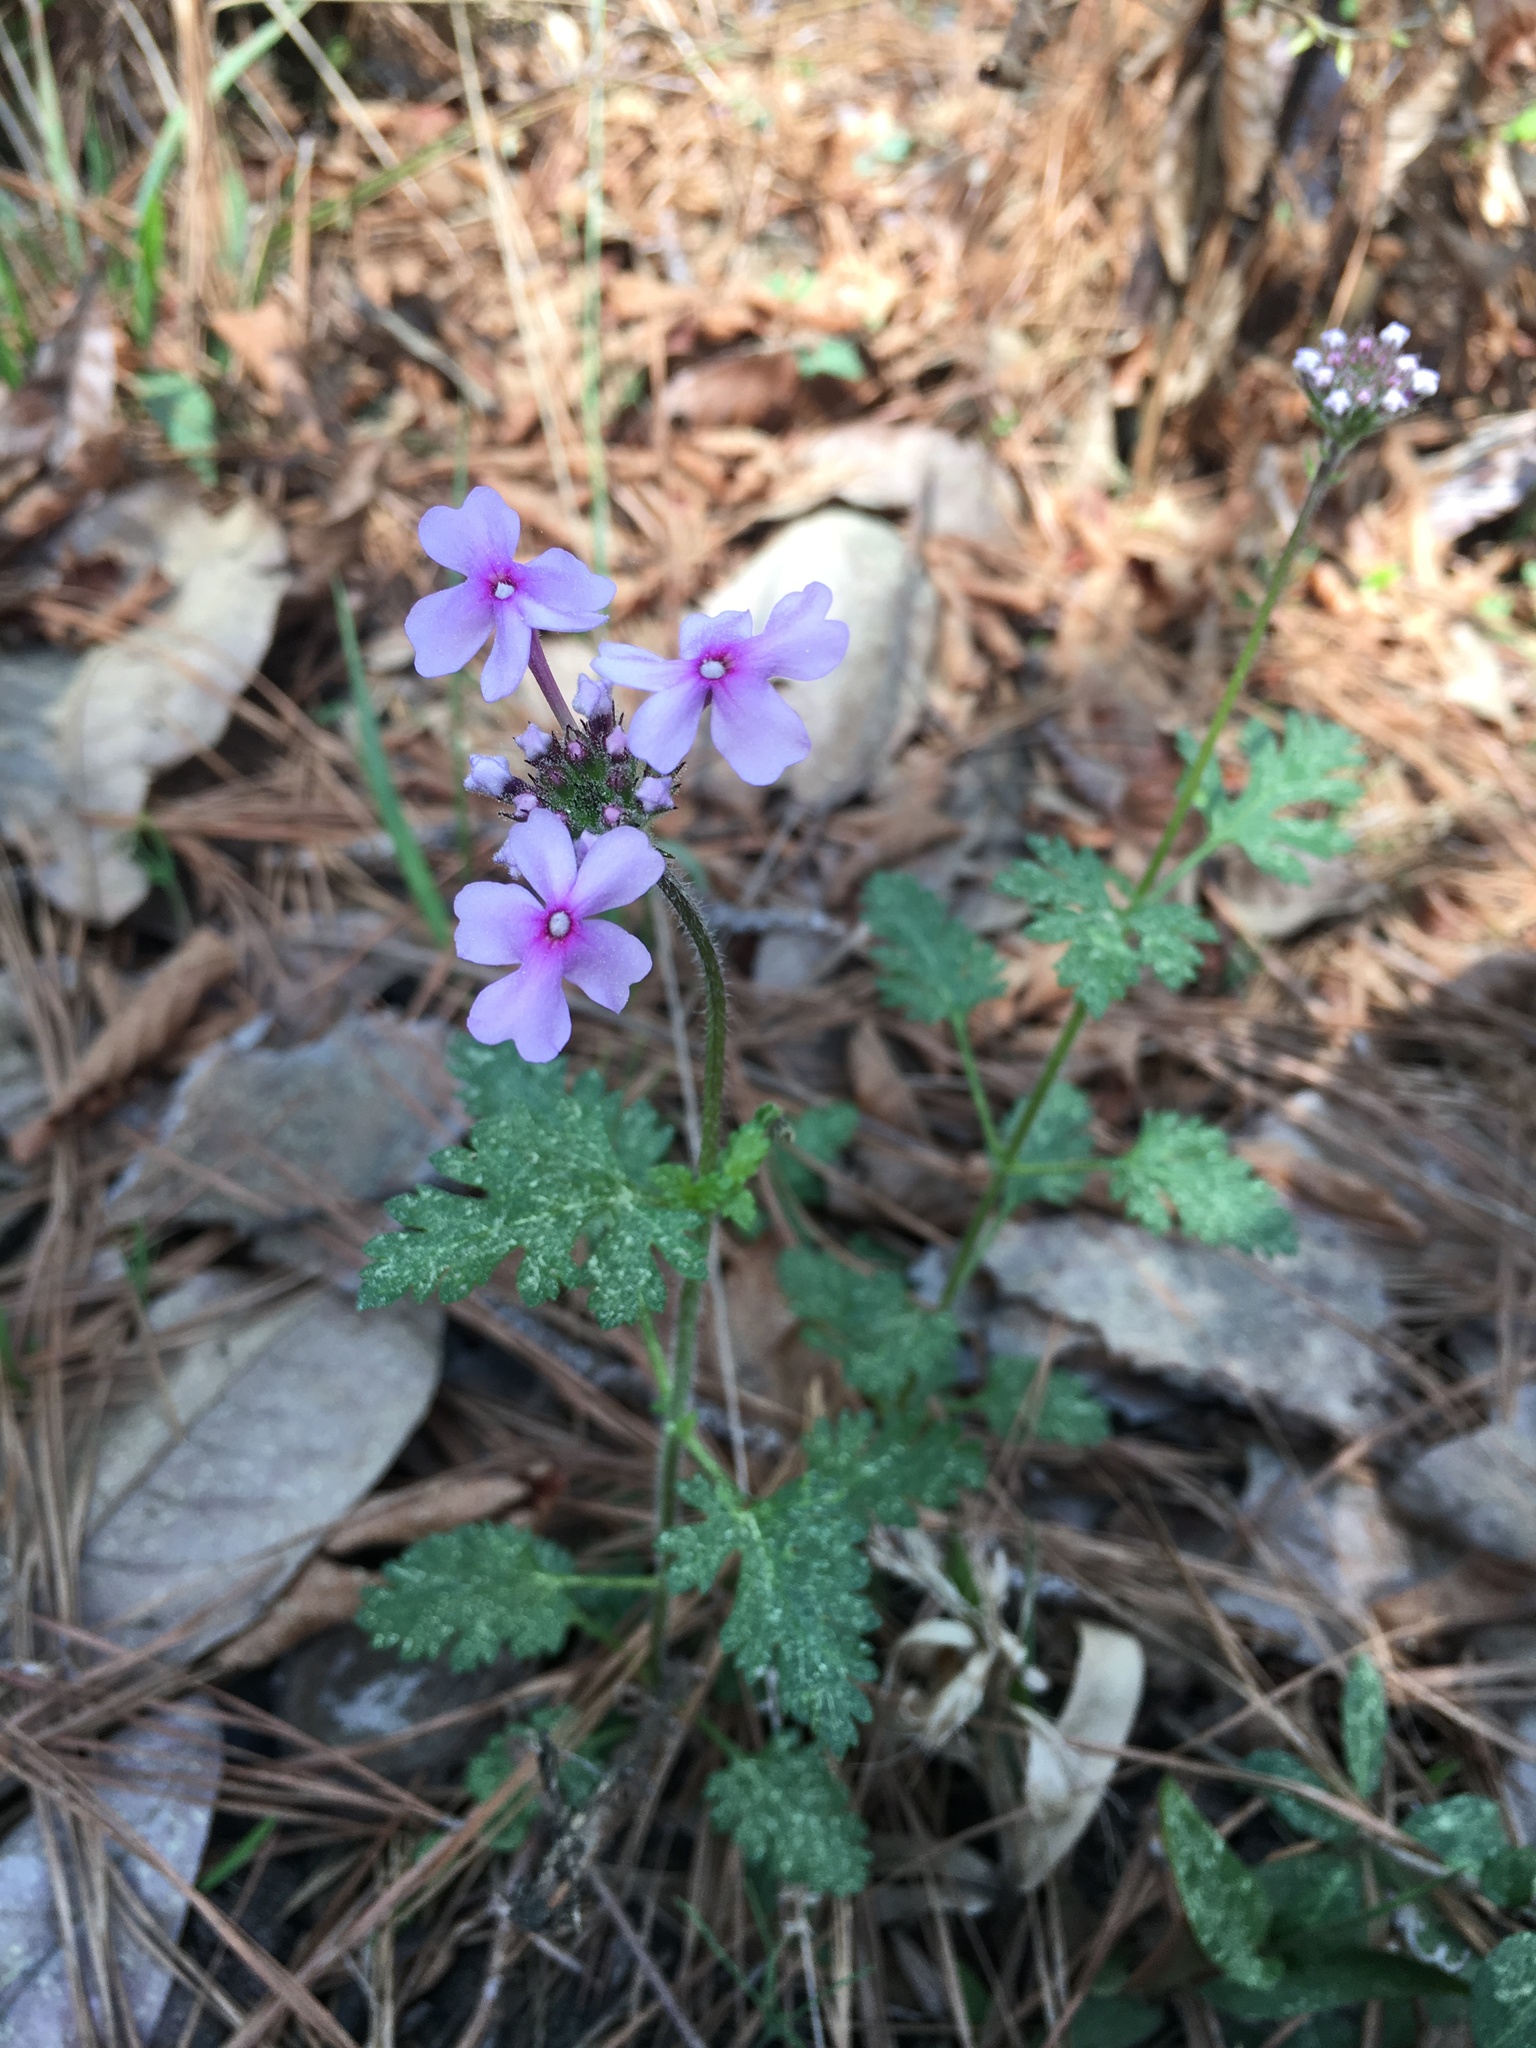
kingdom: Plantae
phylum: Tracheophyta
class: Magnoliopsida
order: Lamiales
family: Verbenaceae
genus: Verbena
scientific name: Verbena canadensis
